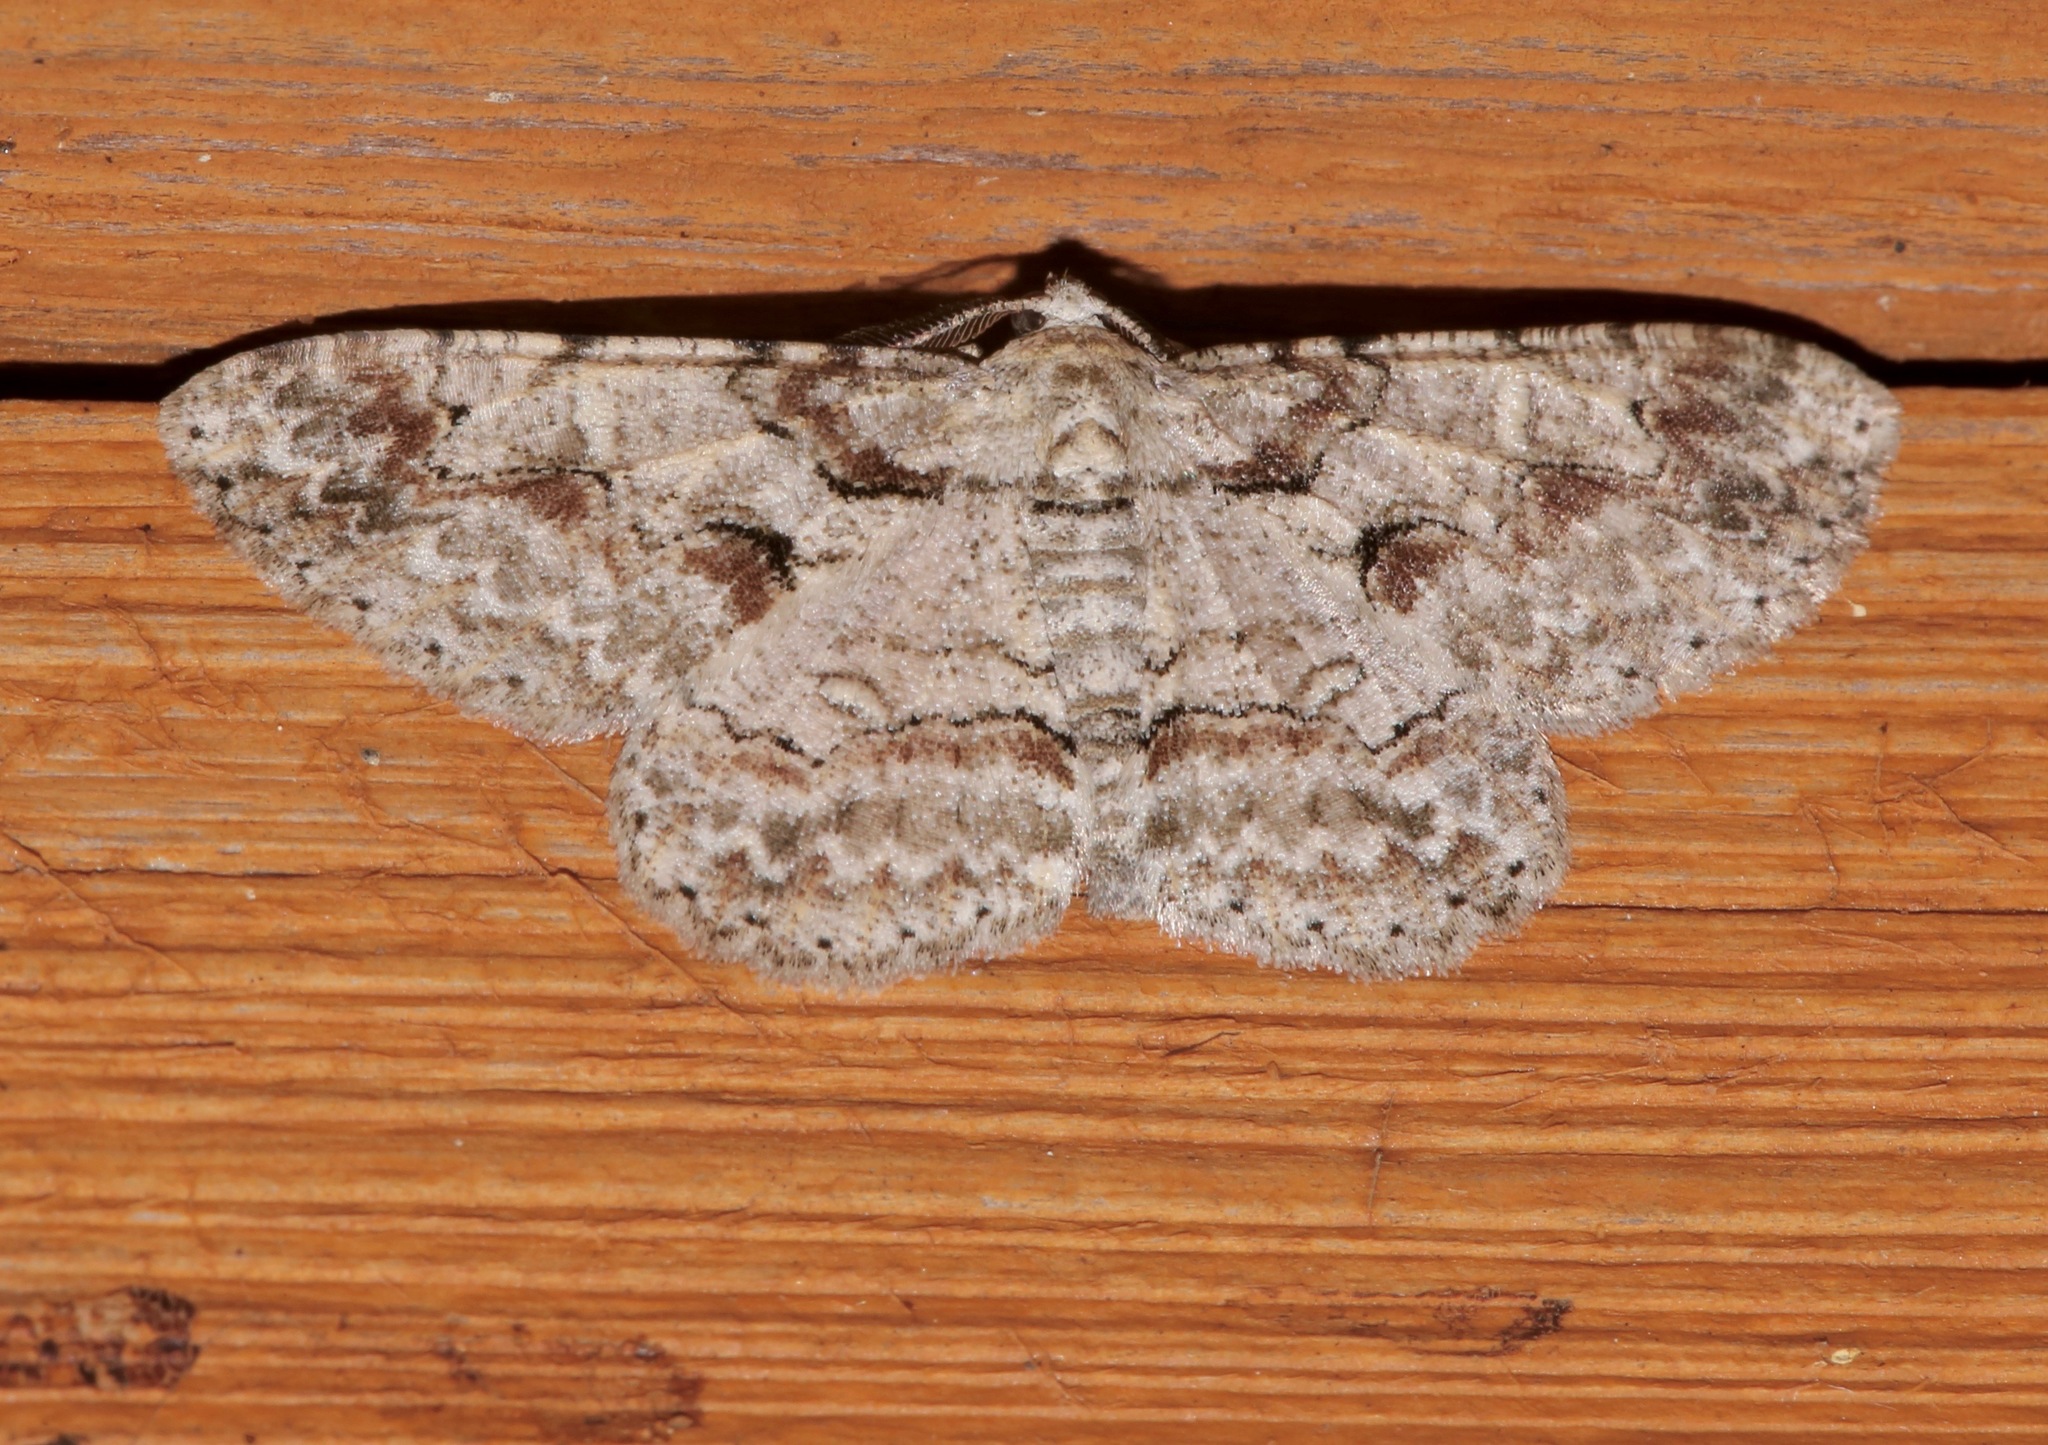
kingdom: Animalia
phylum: Arthropoda
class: Insecta
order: Lepidoptera
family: Geometridae
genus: Iridopsis
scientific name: Iridopsis defectaria
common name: Brown-shaded gray
